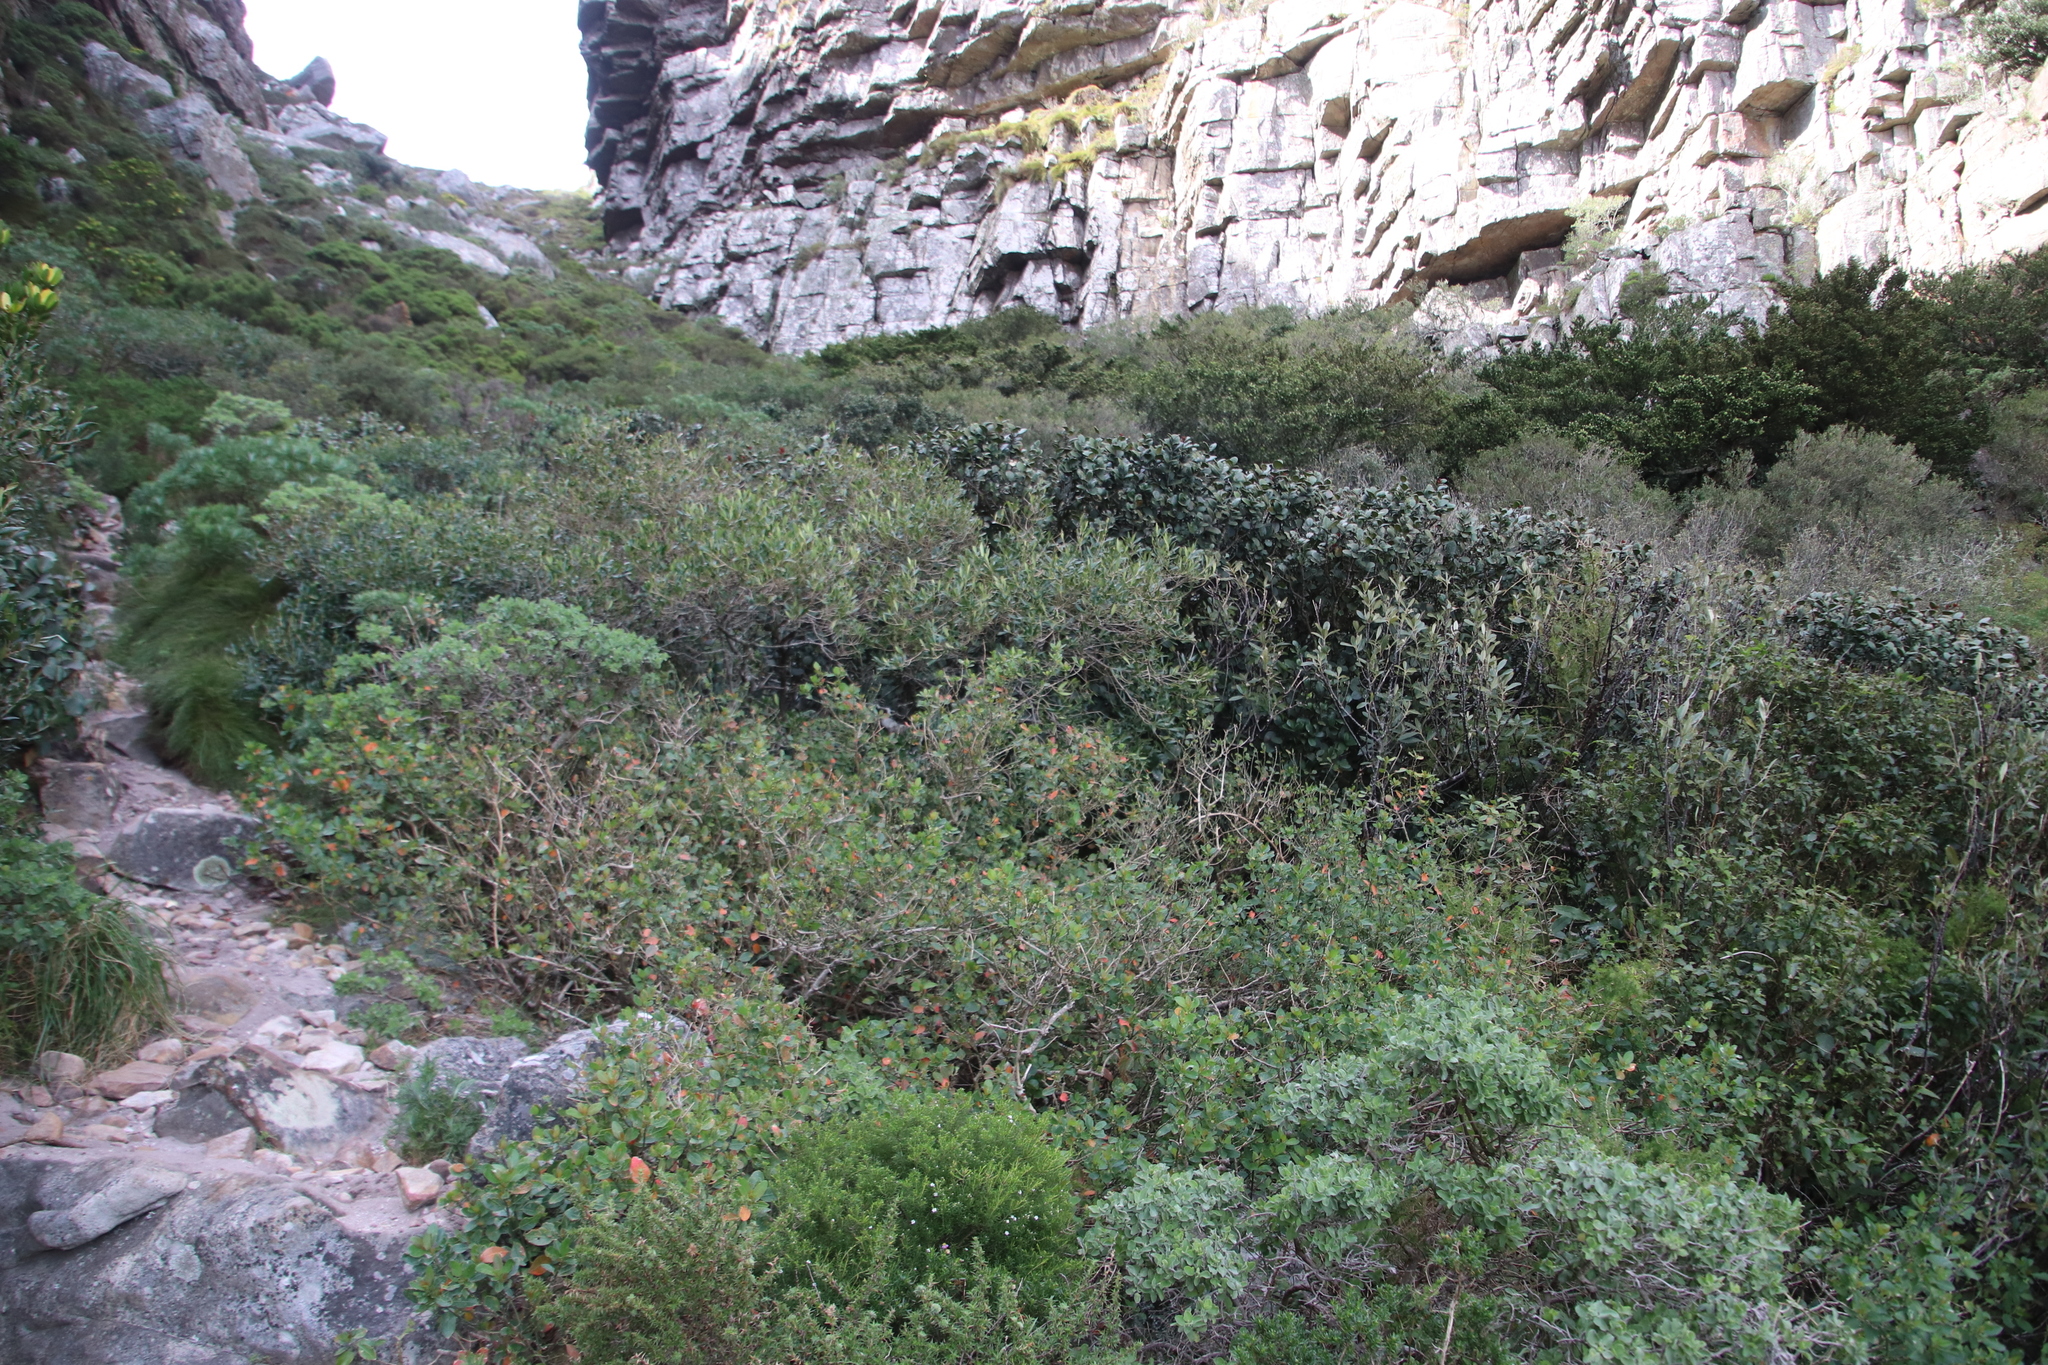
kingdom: Plantae
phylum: Tracheophyta
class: Magnoliopsida
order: Malpighiales
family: Peraceae
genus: Clutia
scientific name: Clutia pulchella
